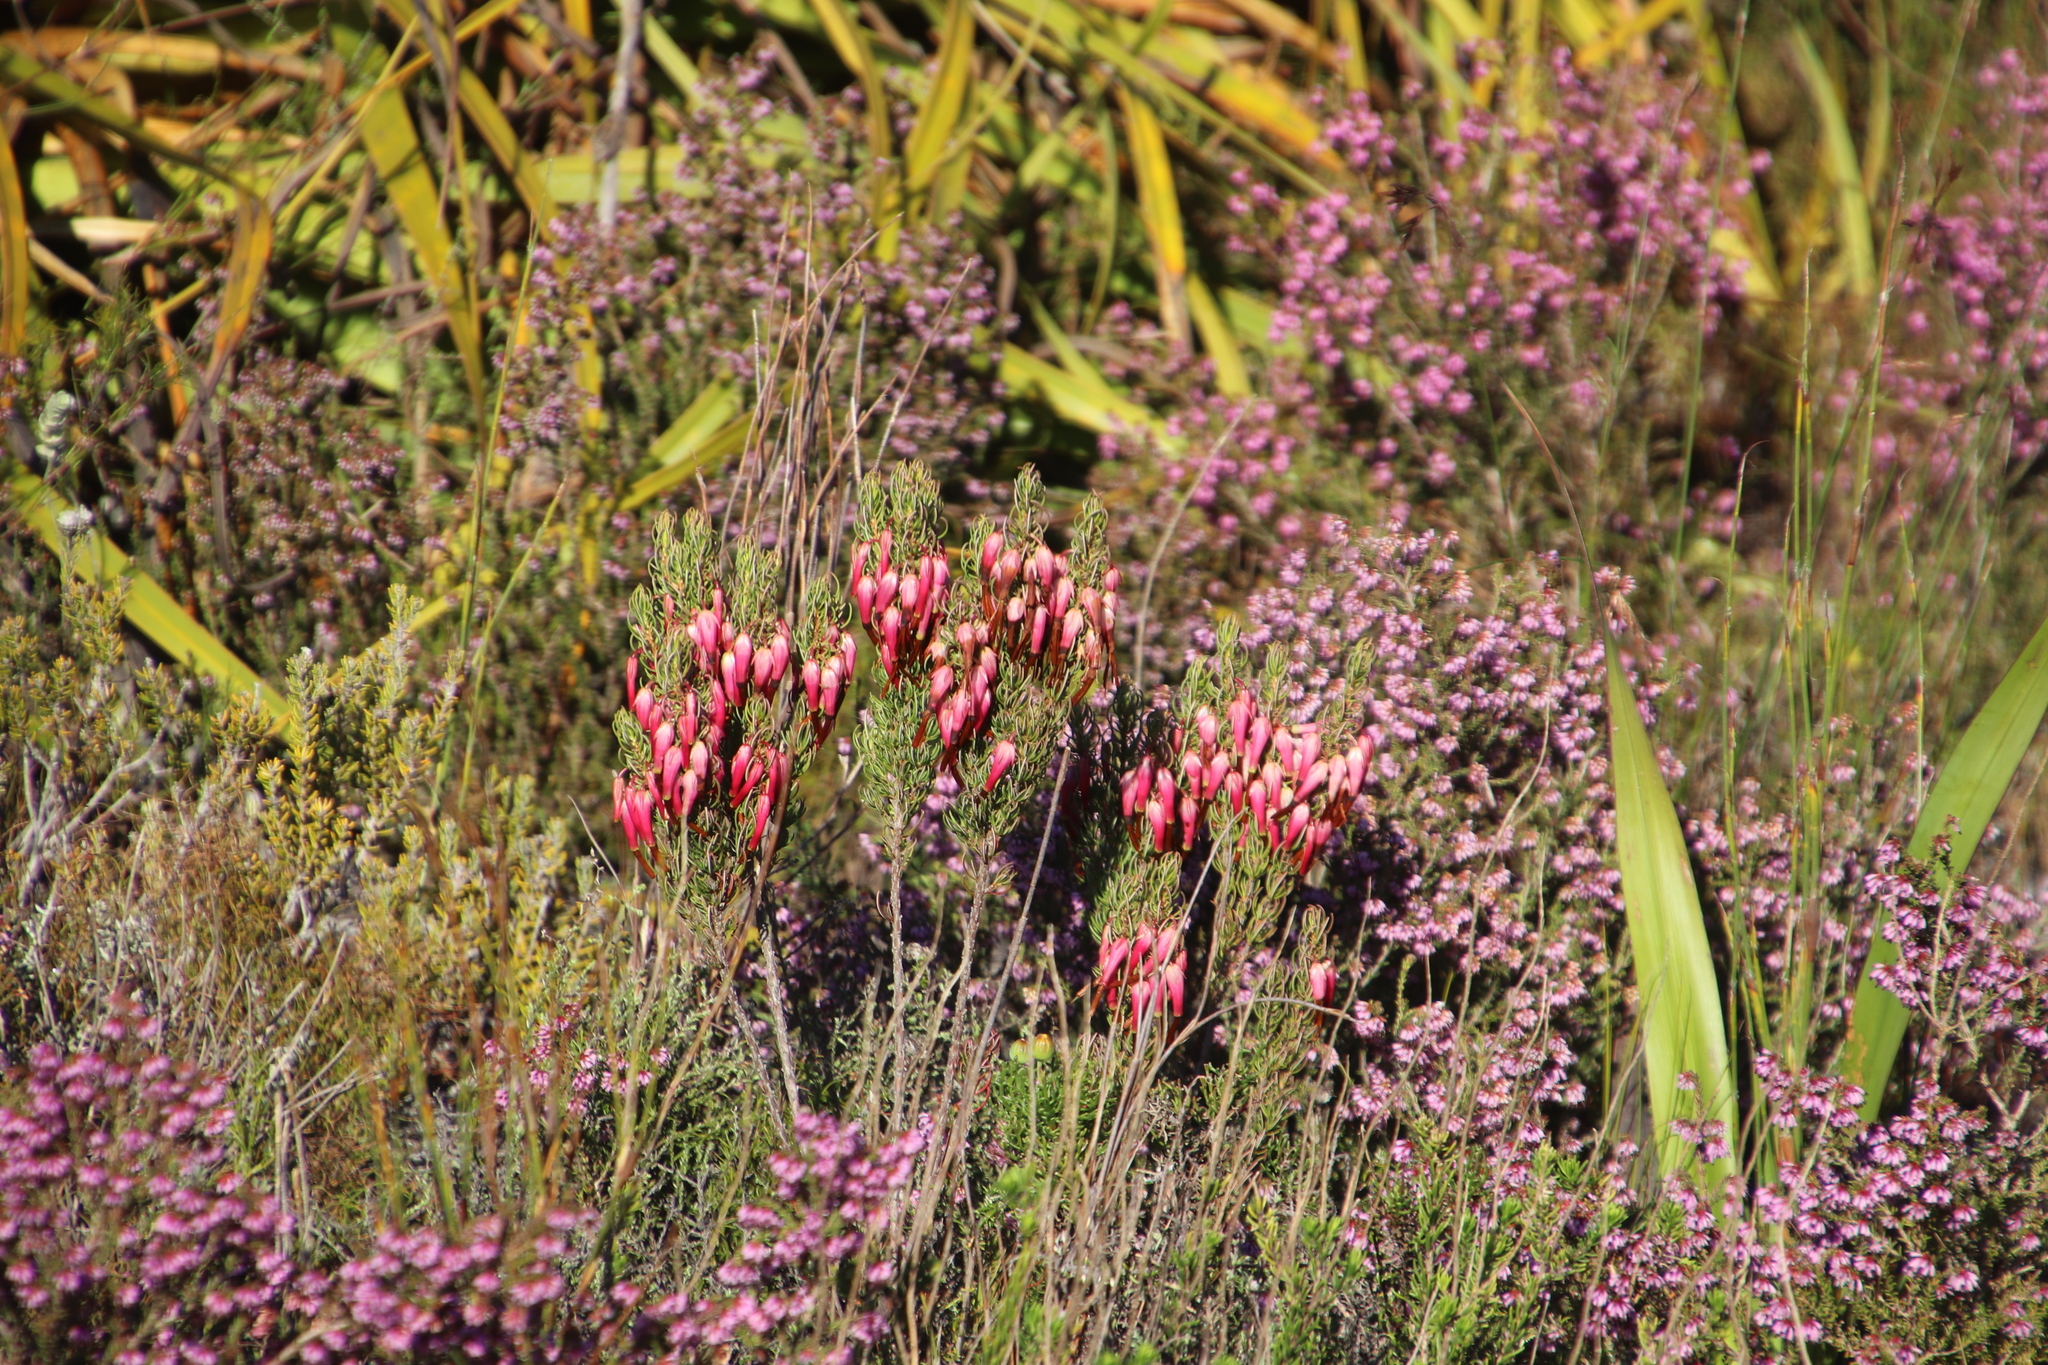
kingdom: Plantae
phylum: Tracheophyta
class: Magnoliopsida
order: Ericales
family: Ericaceae
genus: Erica
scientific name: Erica plukenetii
